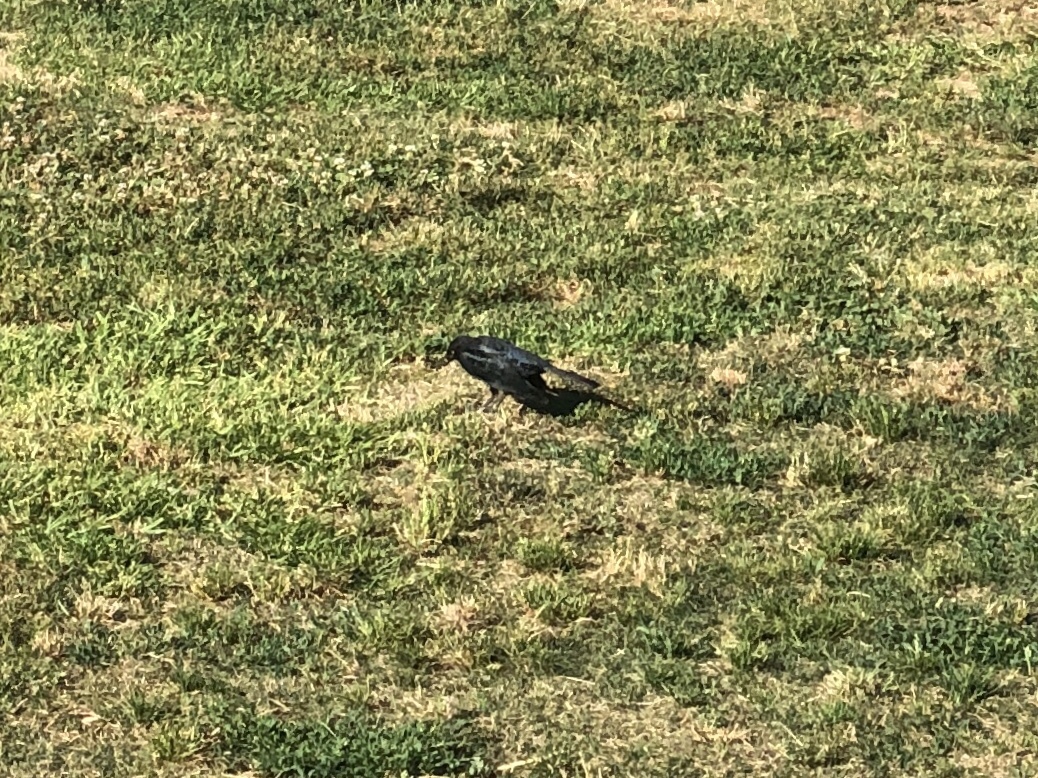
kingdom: Animalia
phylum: Chordata
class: Aves
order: Passeriformes
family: Icteridae
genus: Euphagus
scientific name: Euphagus cyanocephalus
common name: Brewer's blackbird
